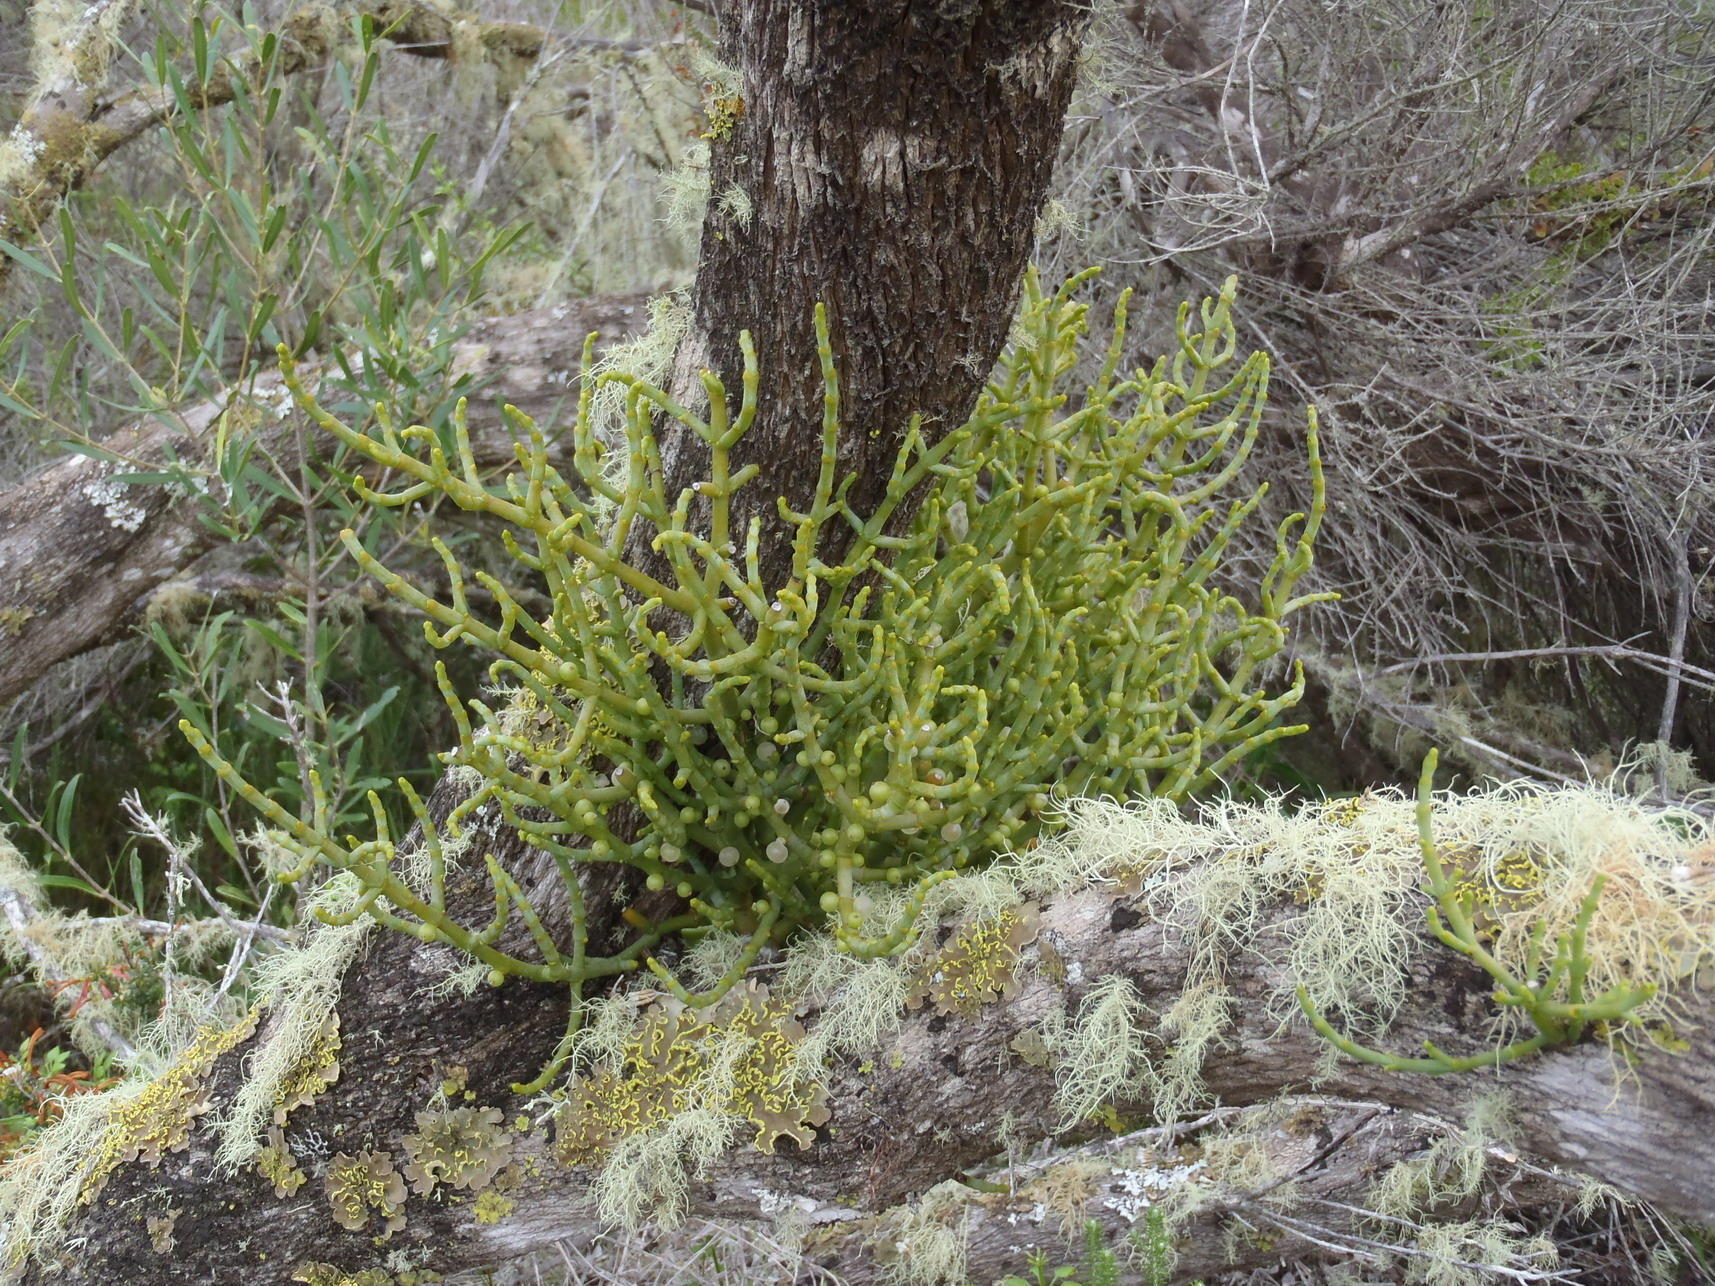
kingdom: Plantae
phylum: Tracheophyta
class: Magnoliopsida
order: Santalales
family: Viscaceae
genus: Viscum
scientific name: Viscum capense
